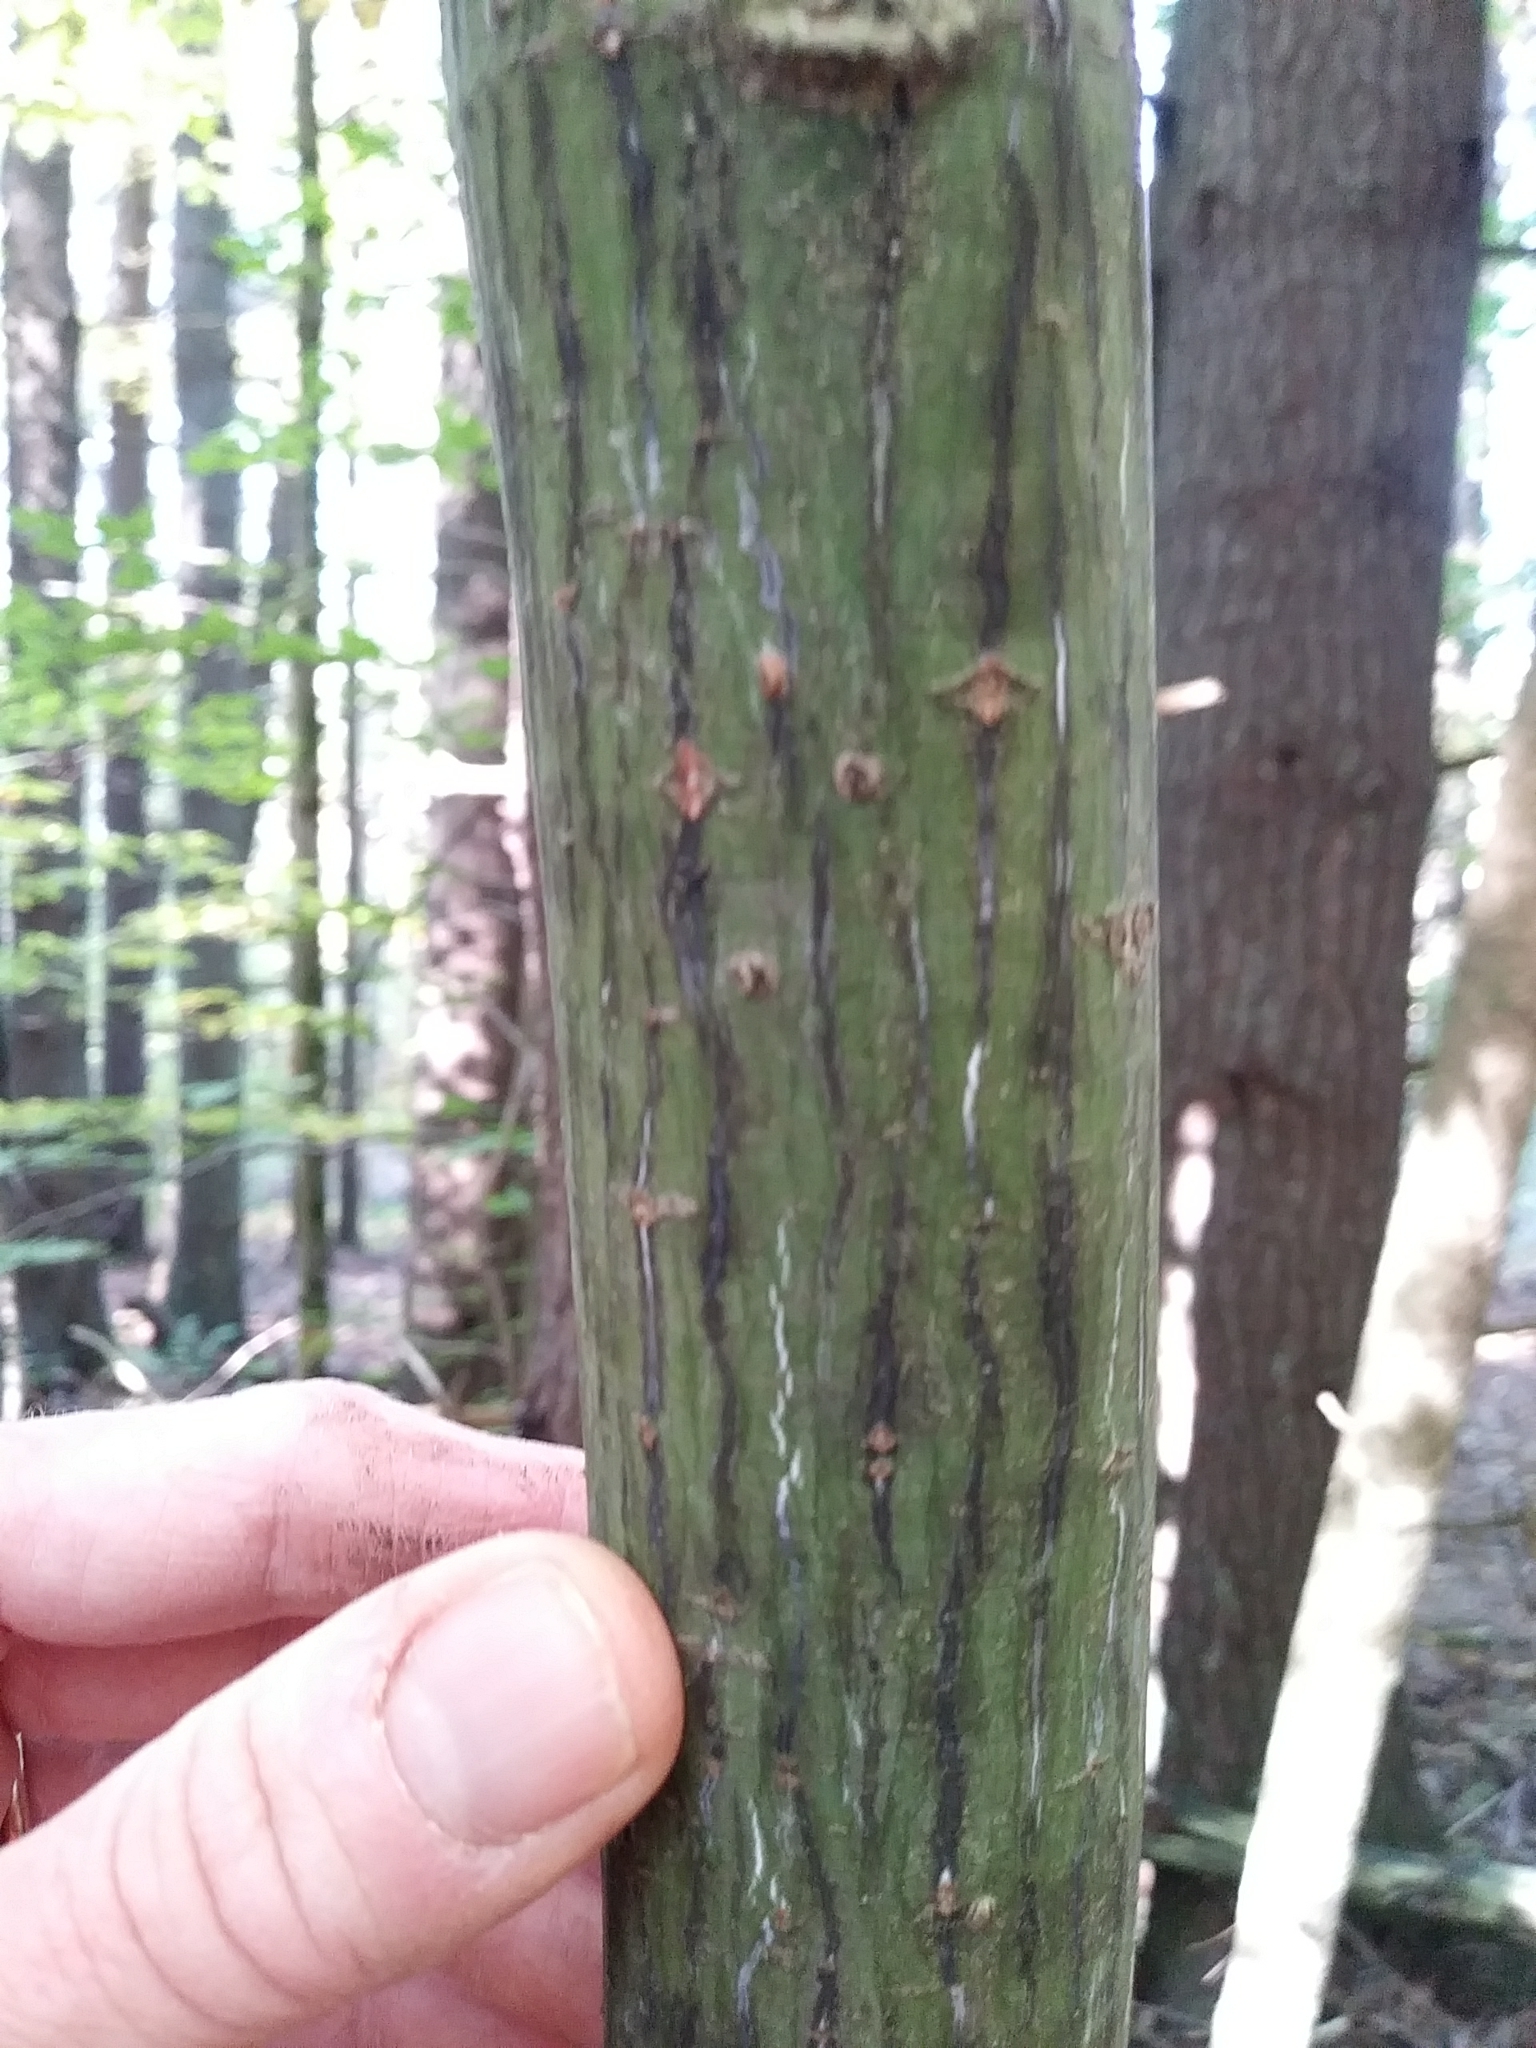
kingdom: Plantae
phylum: Tracheophyta
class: Magnoliopsida
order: Sapindales
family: Sapindaceae
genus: Acer
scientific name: Acer pensylvanicum
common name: Moosewood
